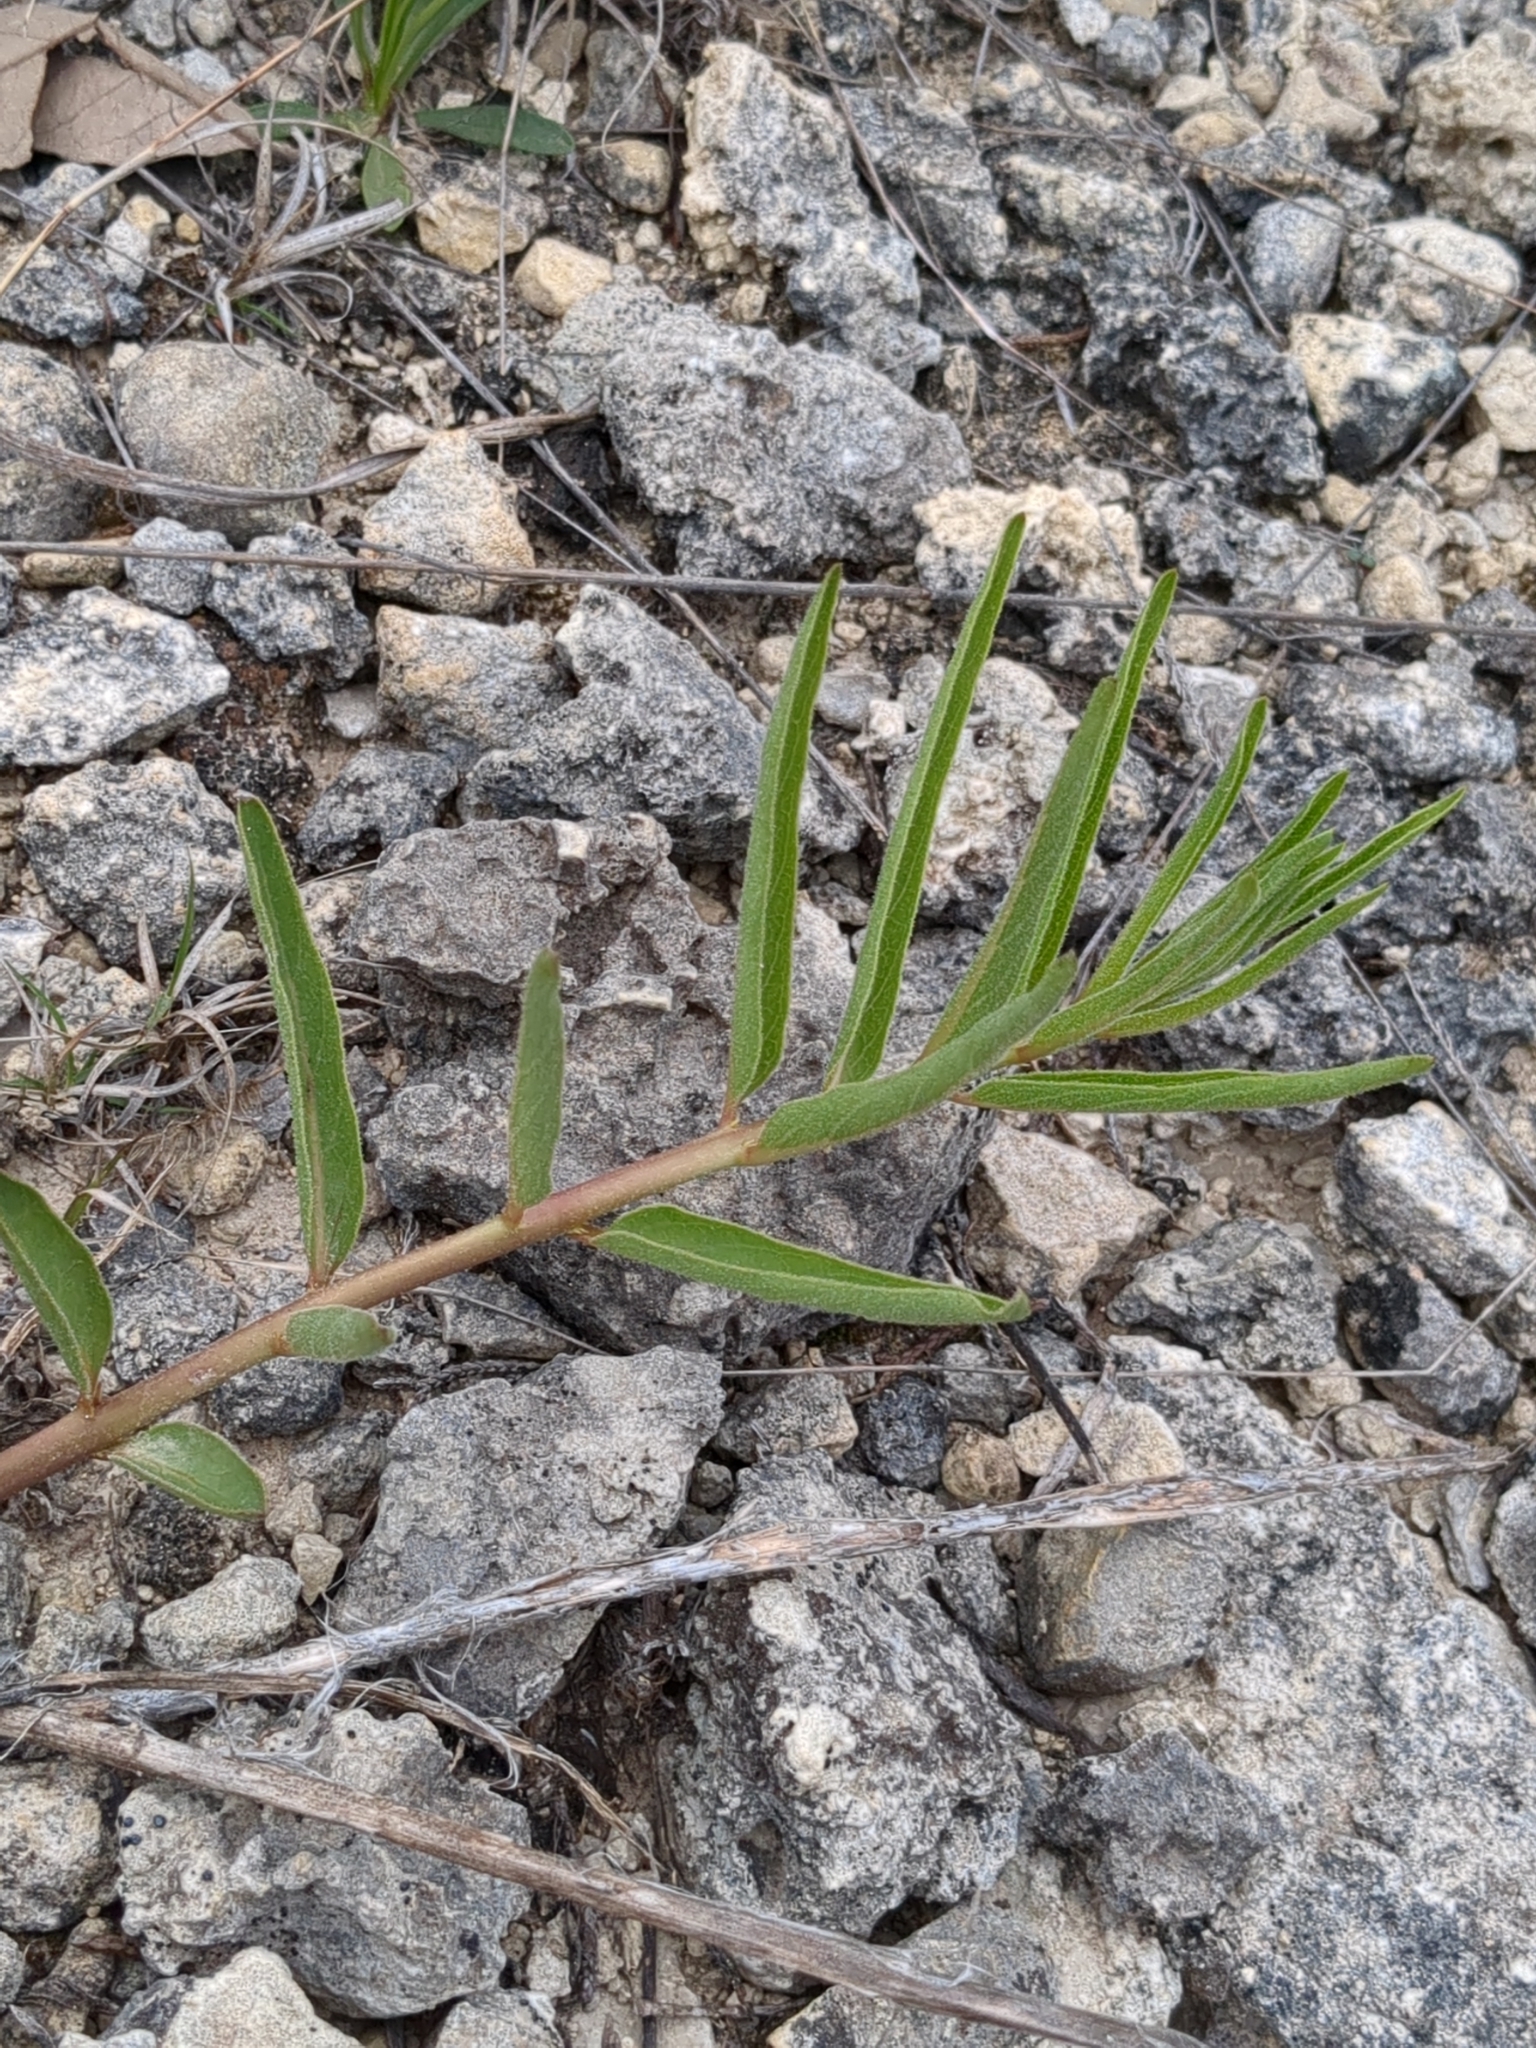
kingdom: Plantae
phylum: Tracheophyta
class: Magnoliopsida
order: Gentianales
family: Apocynaceae
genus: Asclepias
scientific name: Asclepias asperula
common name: Antelope horns
